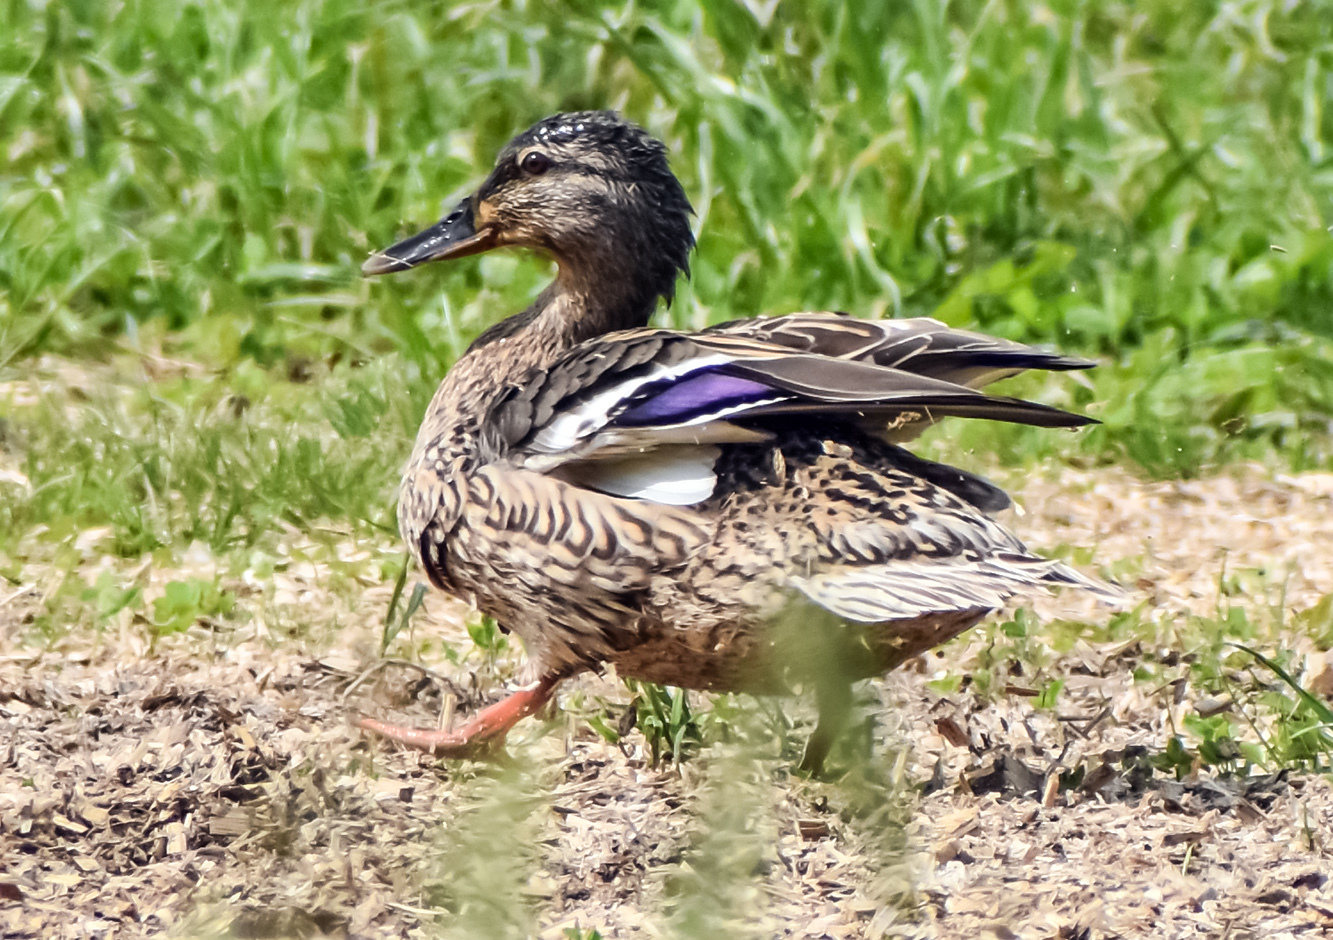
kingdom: Animalia
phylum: Chordata
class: Aves
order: Anseriformes
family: Anatidae
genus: Anas
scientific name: Anas platyrhynchos
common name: Mallard
